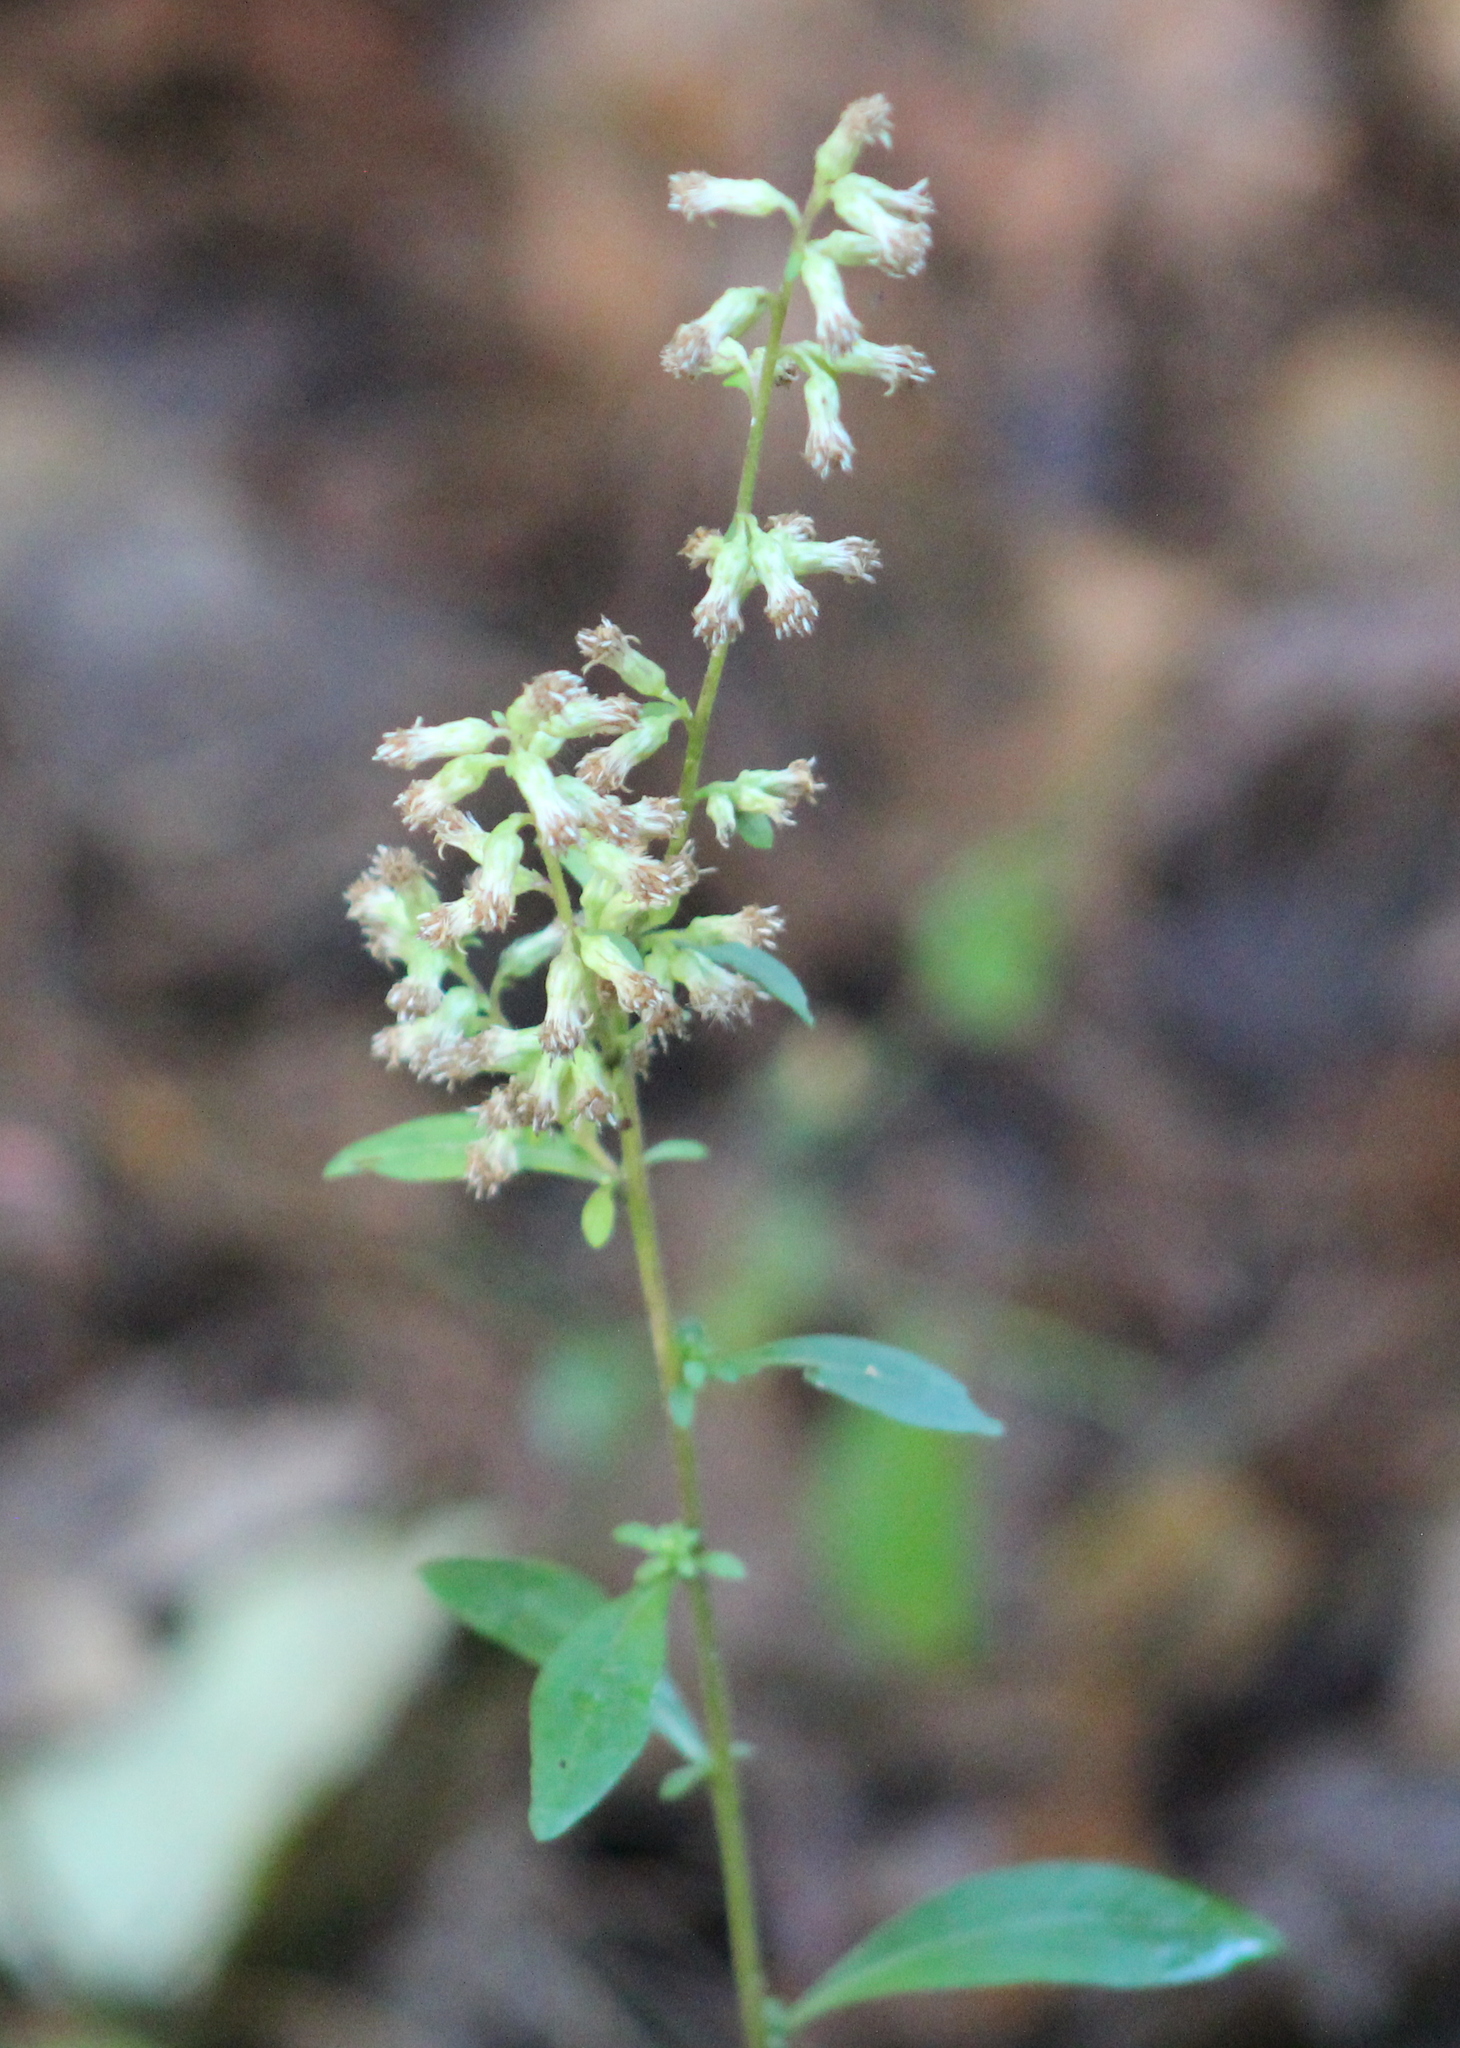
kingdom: Plantae
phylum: Tracheophyta
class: Magnoliopsida
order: Asterales
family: Asteraceae
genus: Solidago
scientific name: Solidago bicolor
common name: Silverrod
